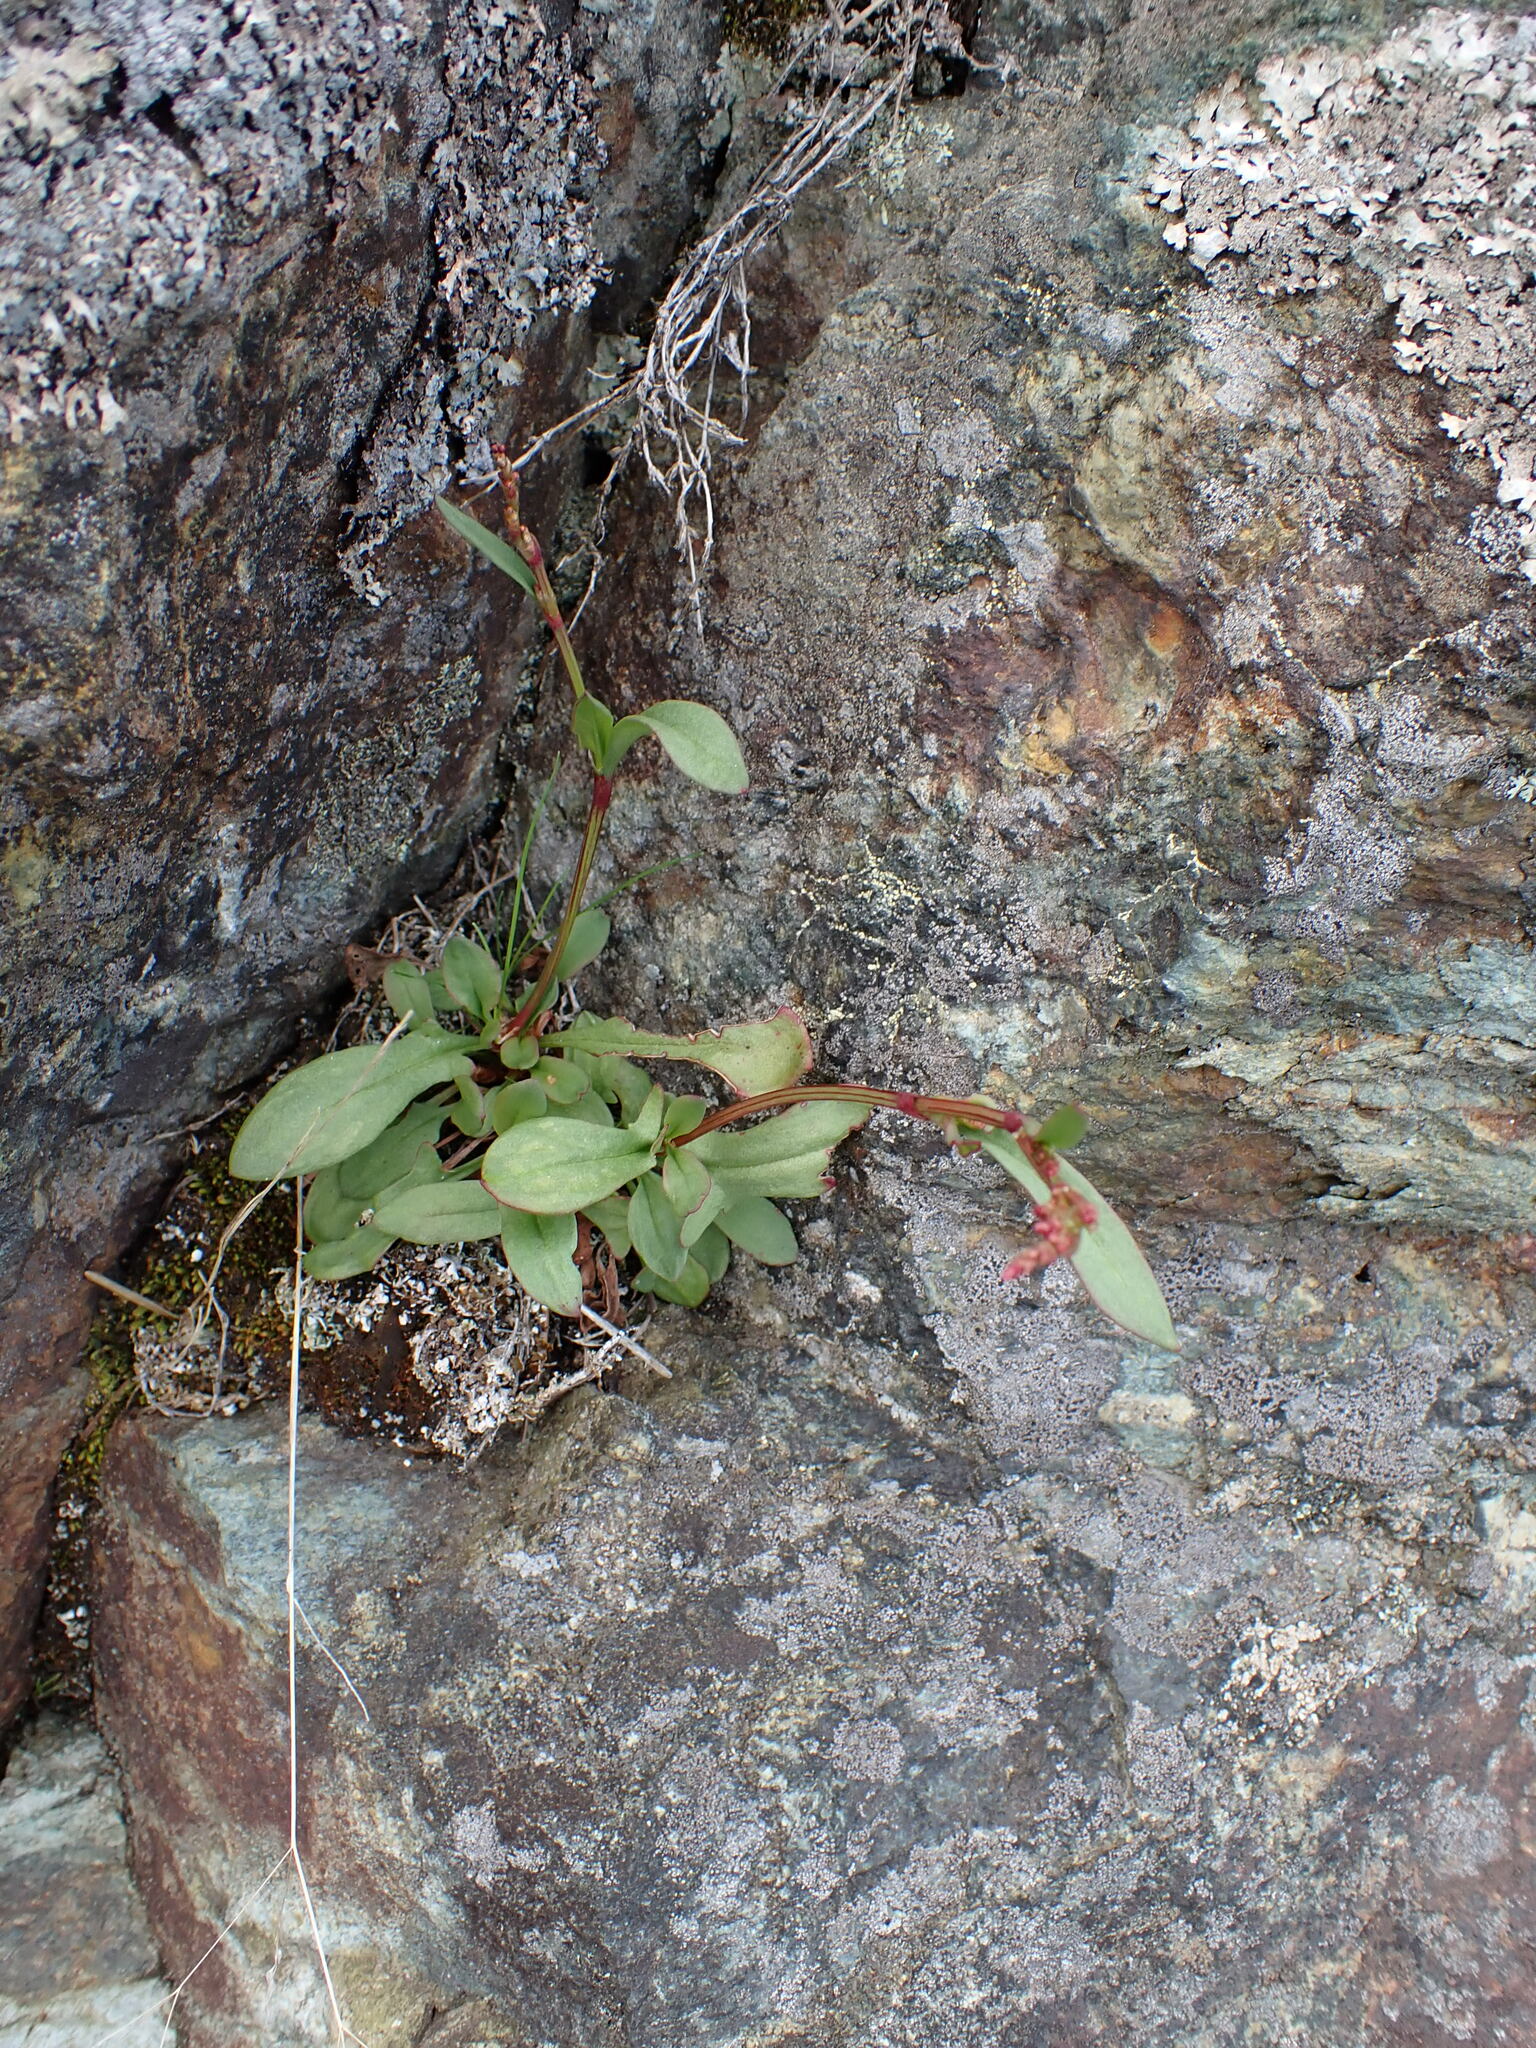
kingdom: Plantae
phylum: Tracheophyta
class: Magnoliopsida
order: Caryophyllales
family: Polygonaceae
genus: Rumex
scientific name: Rumex acetosella
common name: Common sheep sorrel
